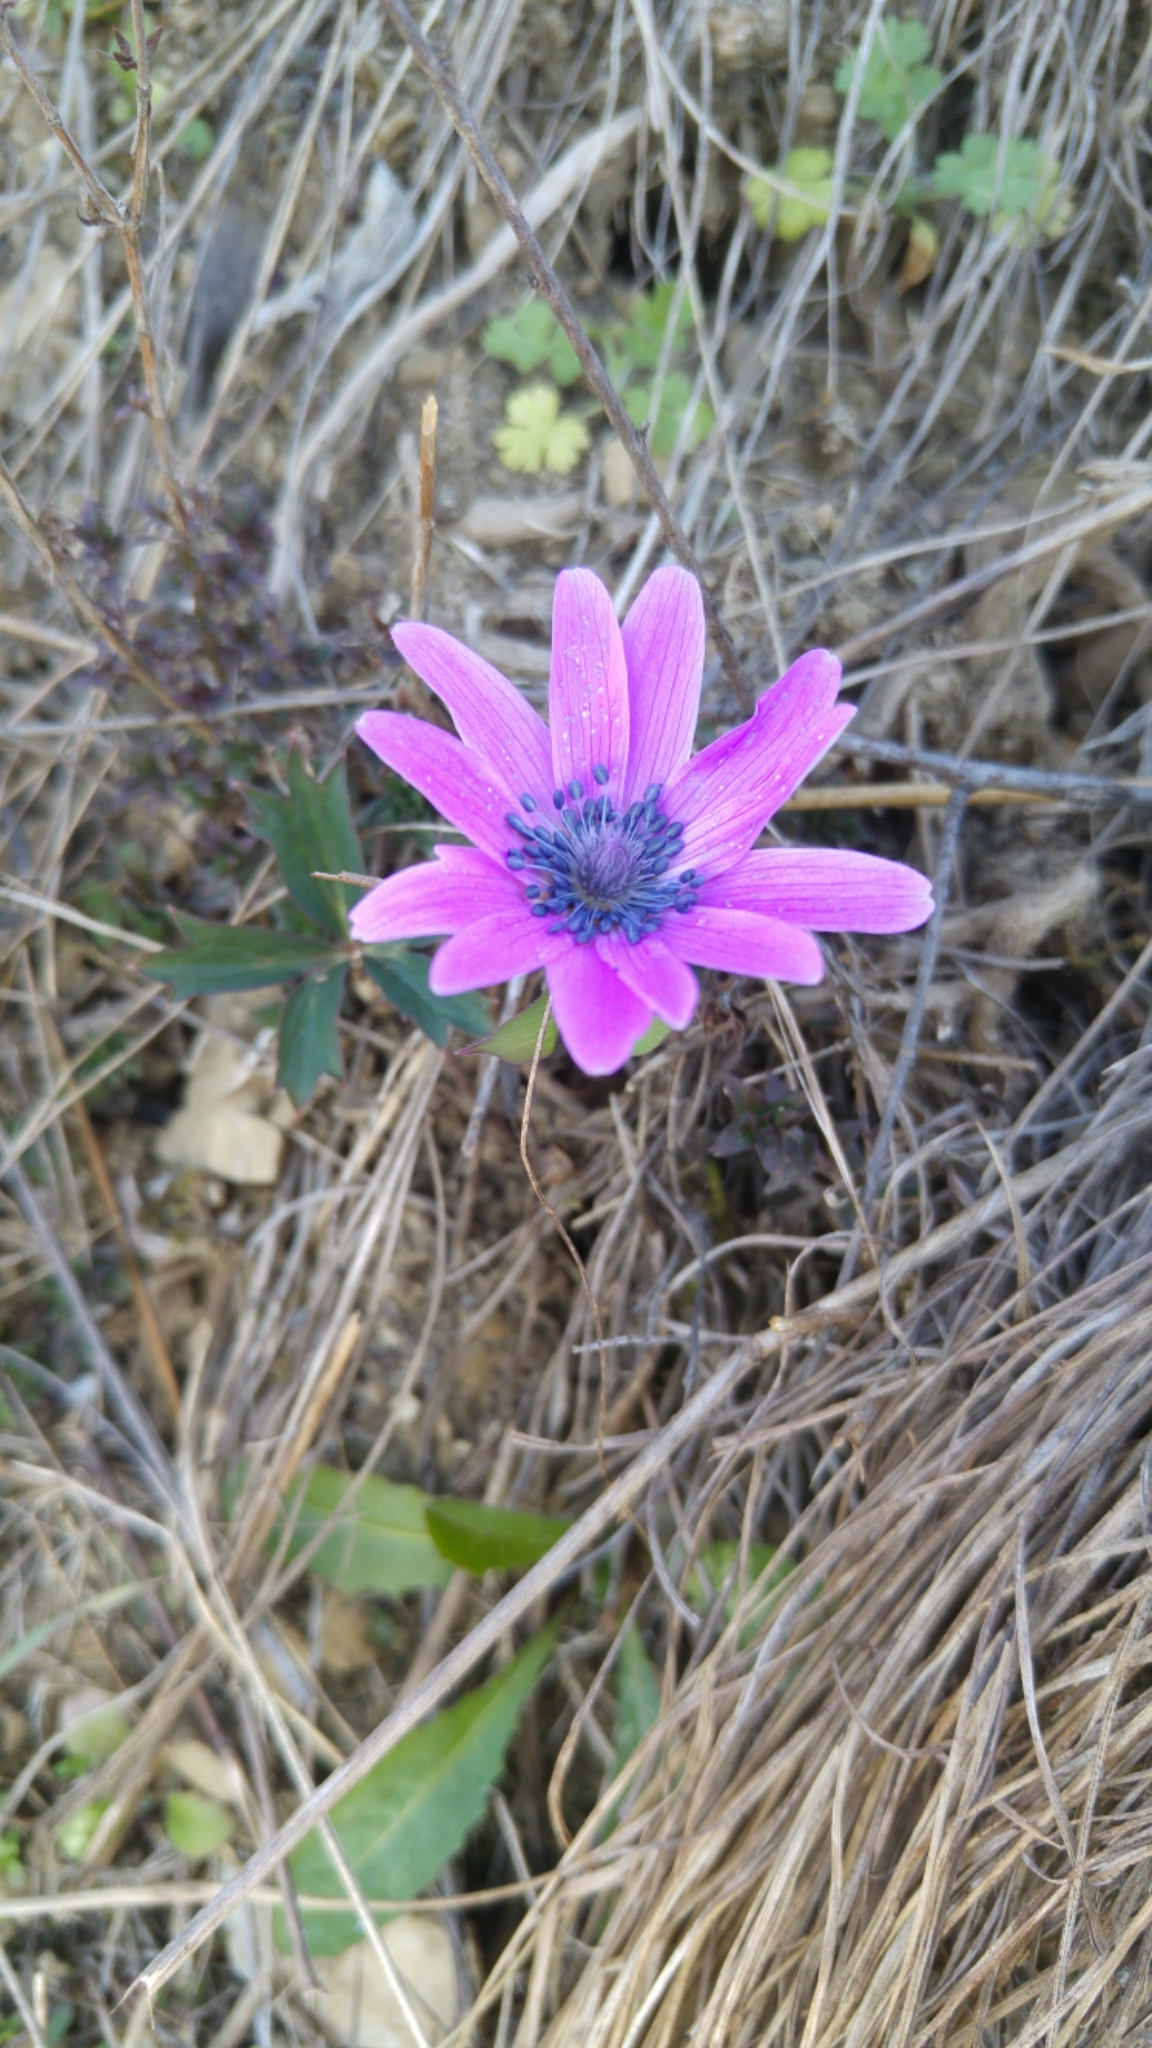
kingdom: Plantae
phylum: Tracheophyta
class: Magnoliopsida
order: Ranunculales
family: Ranunculaceae
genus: Anemone
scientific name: Anemone hortensis
